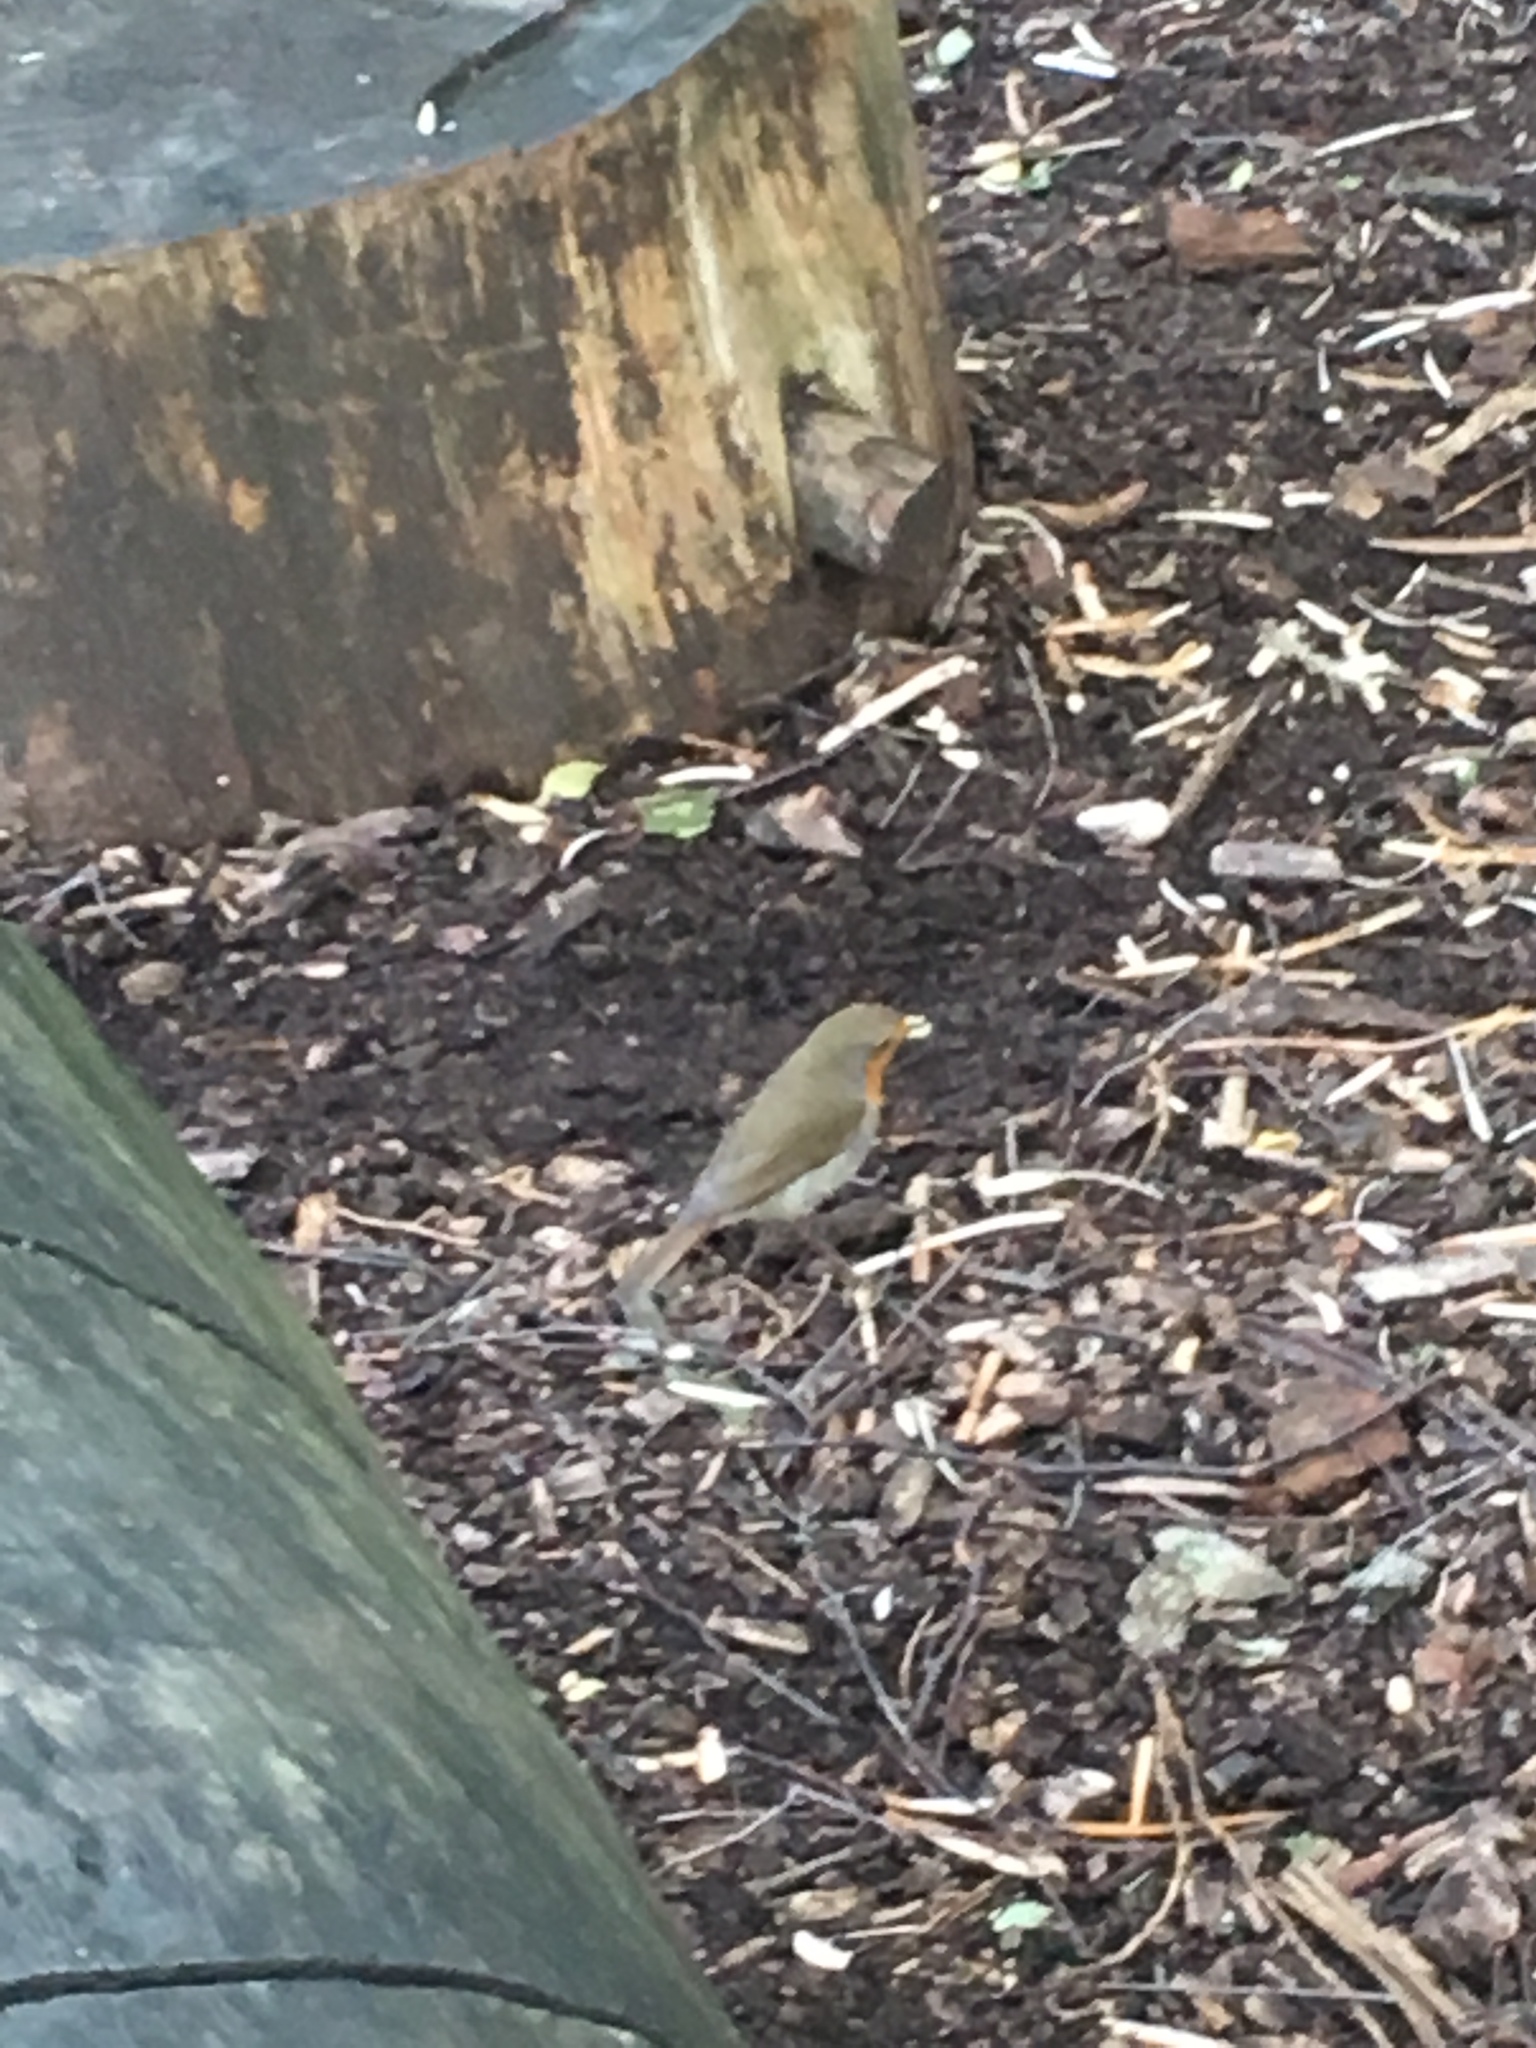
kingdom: Animalia
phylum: Chordata
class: Aves
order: Passeriformes
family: Muscicapidae
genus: Erithacus
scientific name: Erithacus rubecula
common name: European robin
